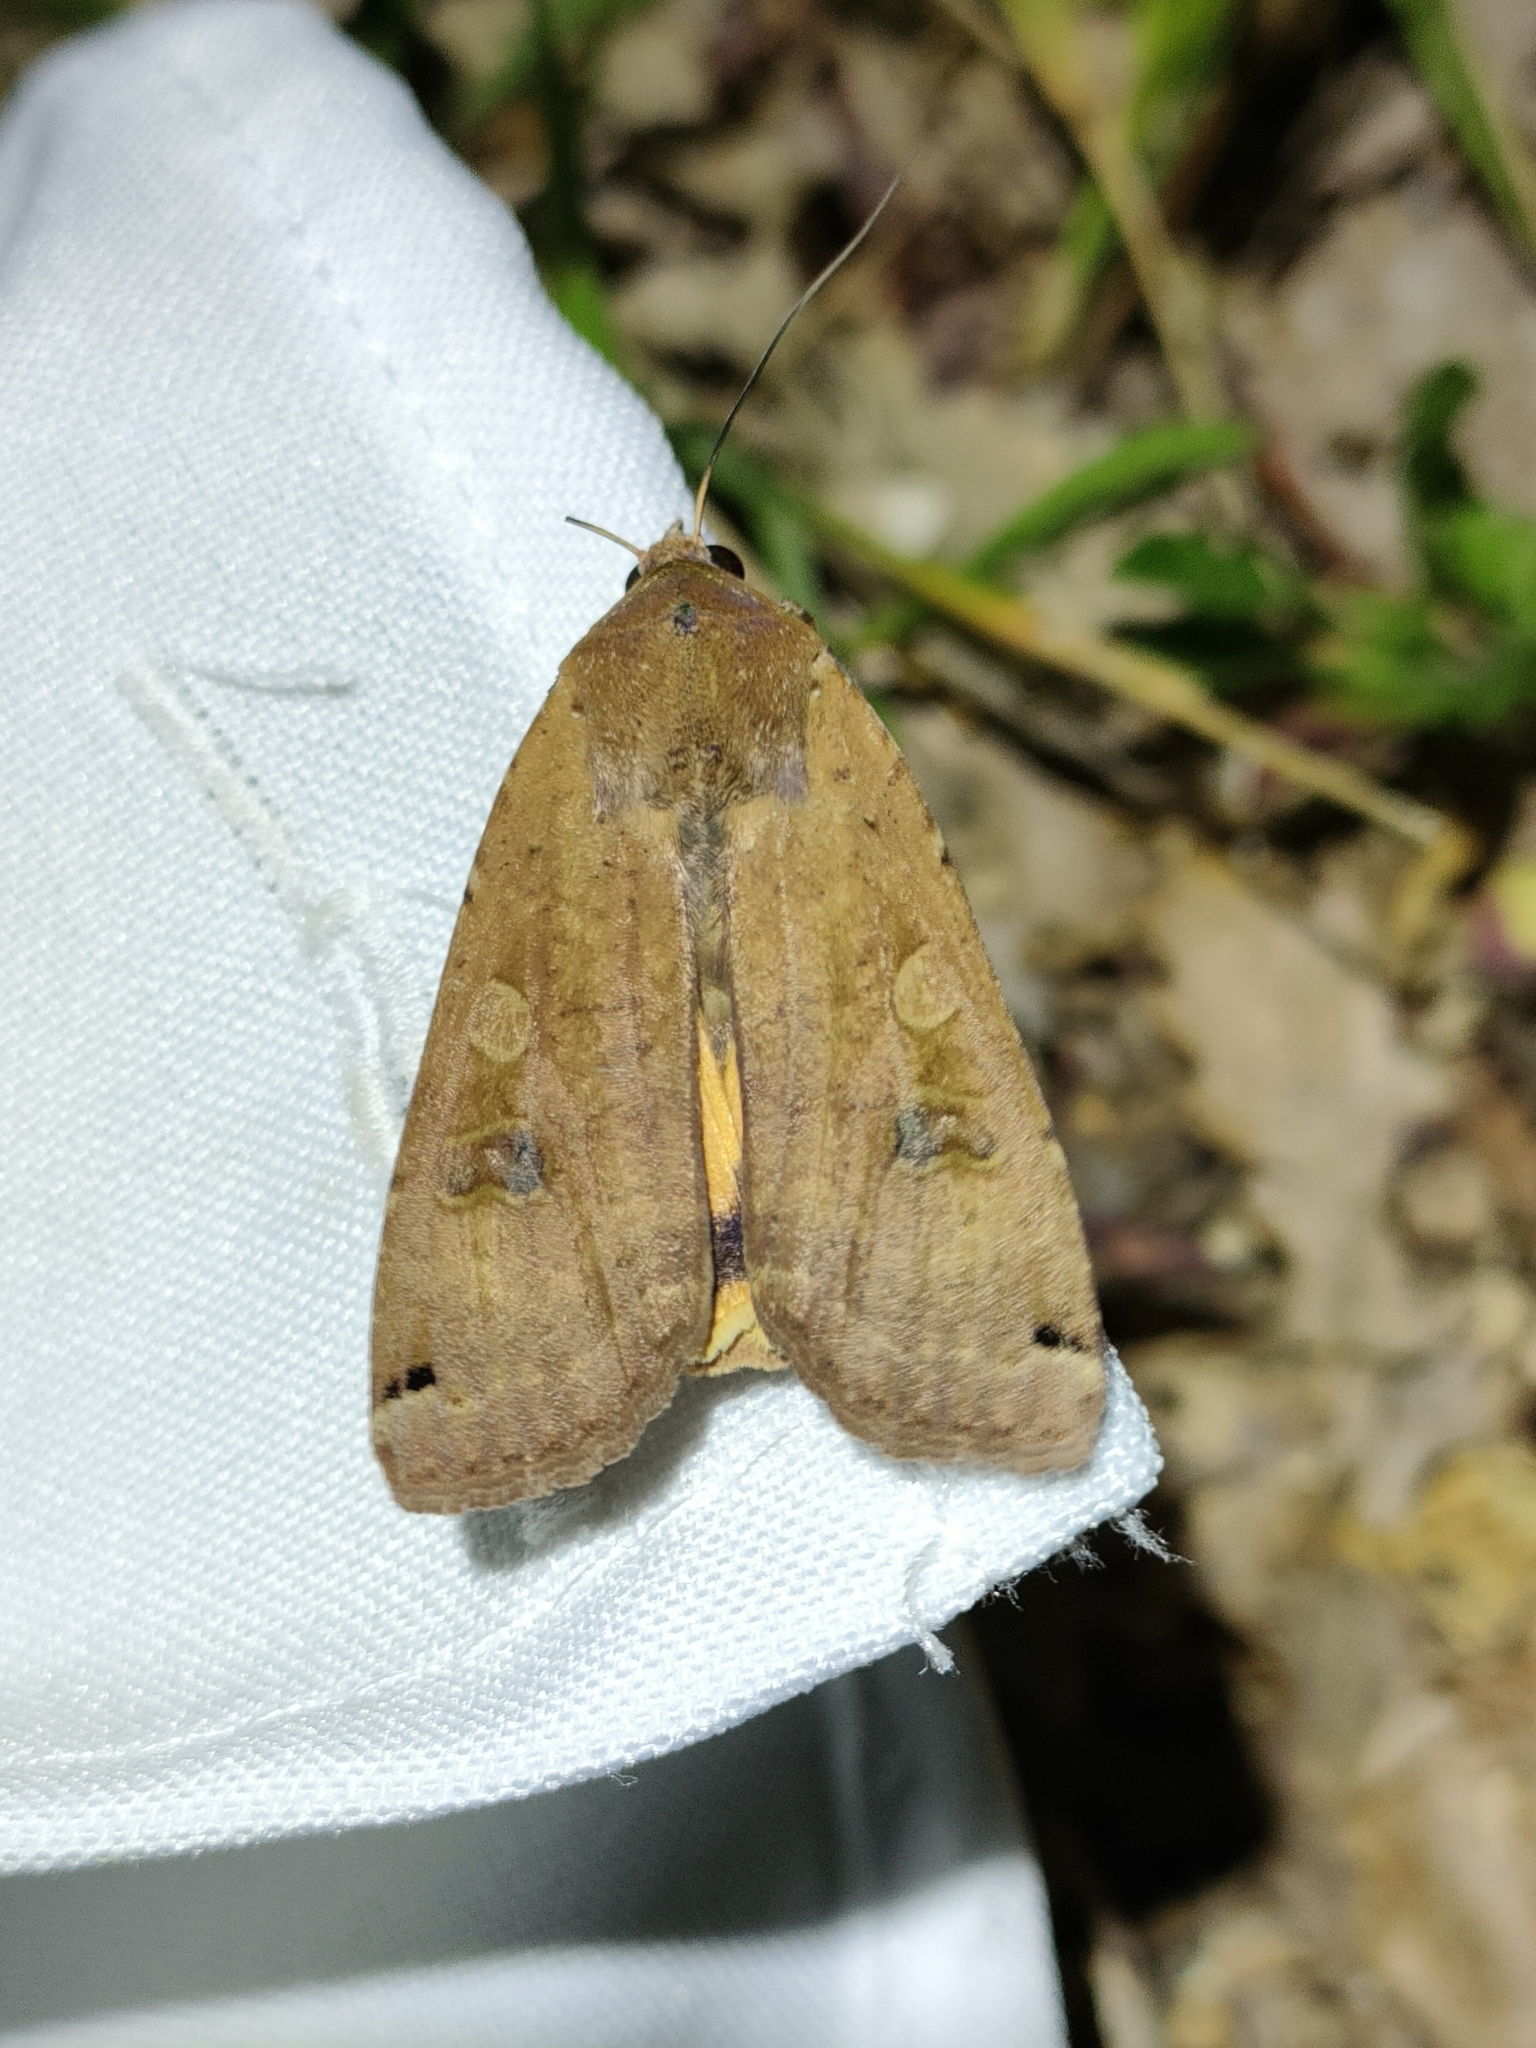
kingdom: Animalia
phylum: Arthropoda
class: Insecta
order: Lepidoptera
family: Noctuidae
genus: Noctua
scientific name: Noctua pronuba
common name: Large yellow underwing
